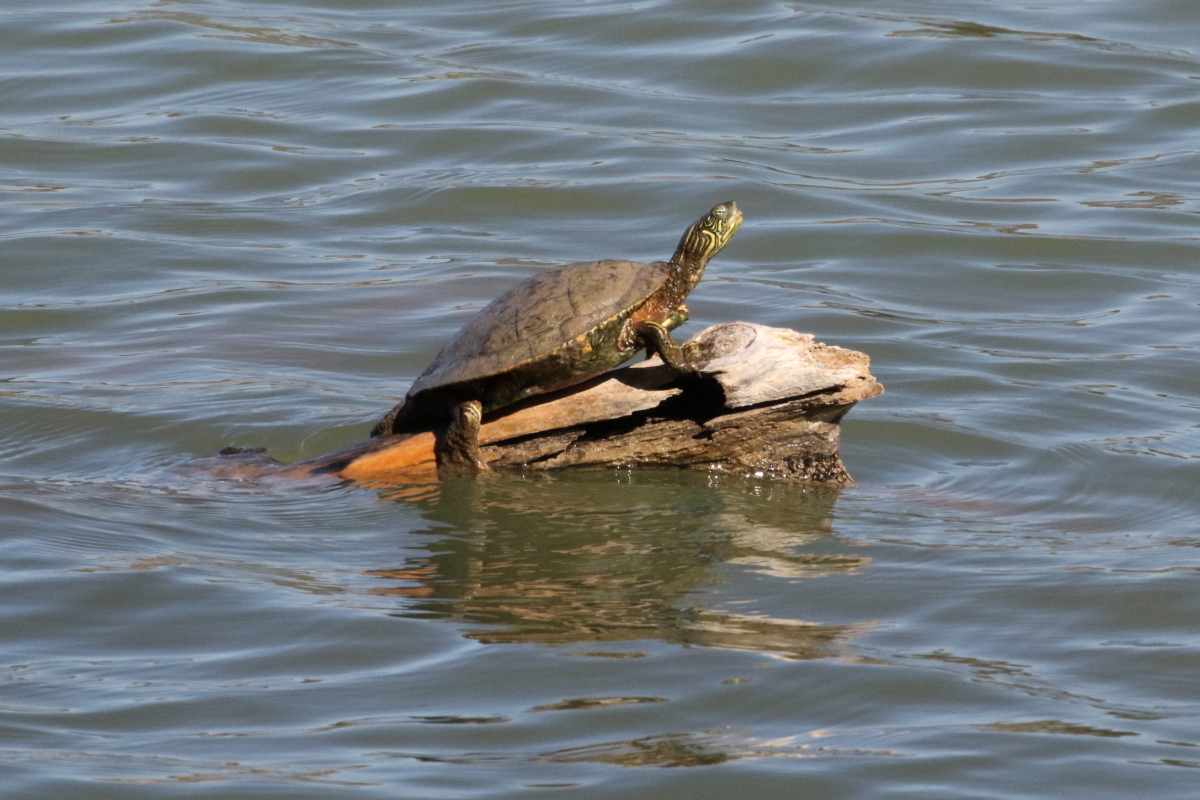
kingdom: Animalia
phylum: Chordata
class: Testudines
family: Emydidae
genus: Pseudemys
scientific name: Pseudemys texana
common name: Texas river cooter
